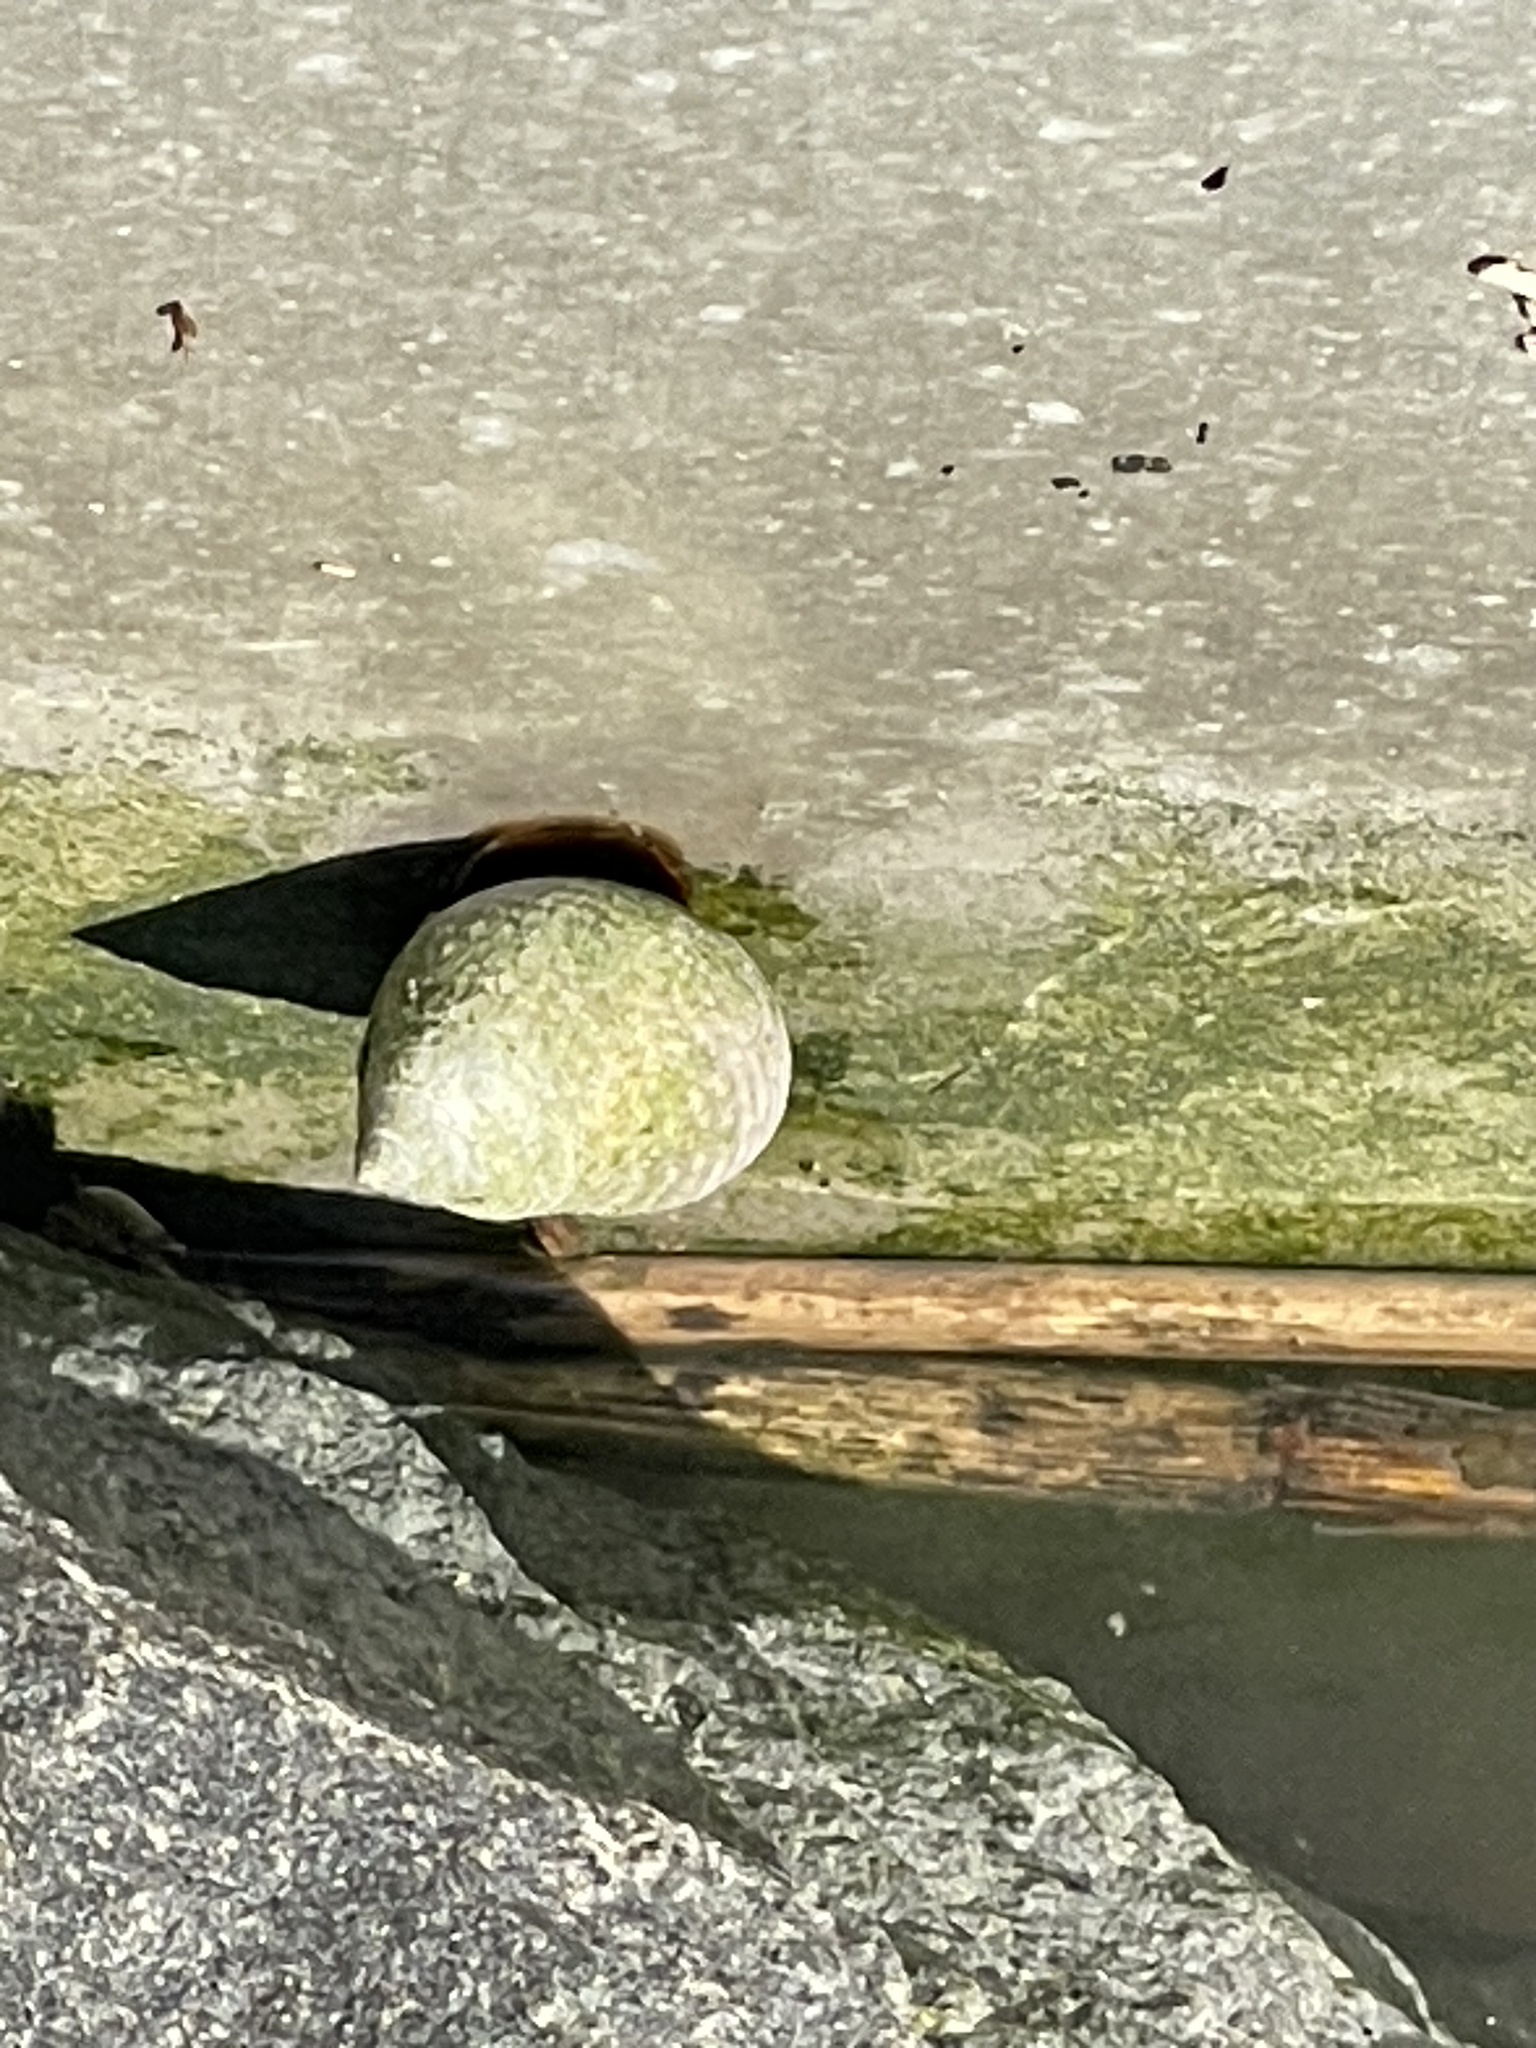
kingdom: Animalia
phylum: Mollusca
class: Gastropoda
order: Littorinimorpha
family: Littorinidae
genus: Littoraria
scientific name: Littoraria irrorata
